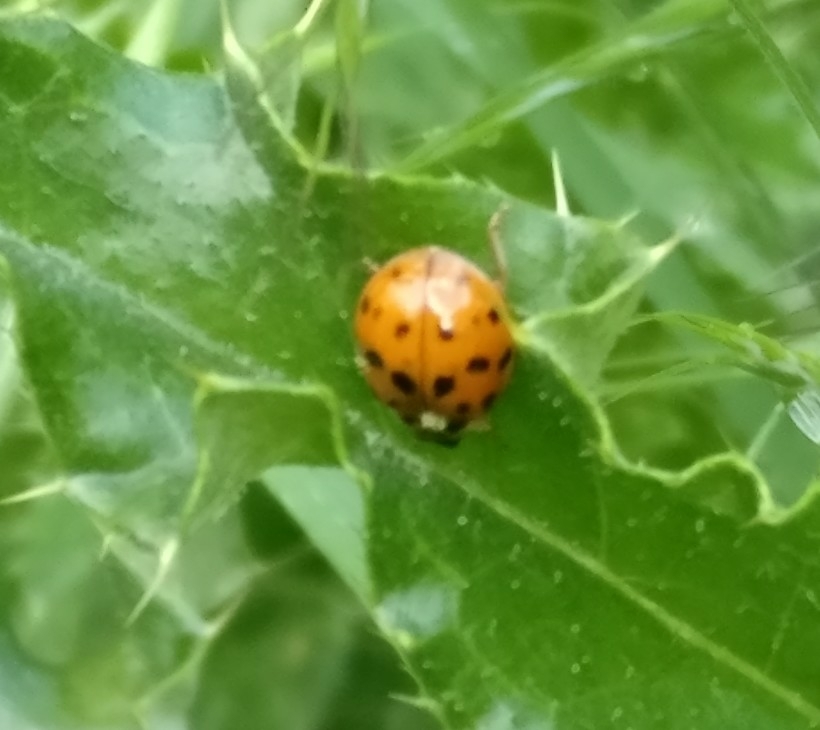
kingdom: Animalia
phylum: Arthropoda
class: Insecta
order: Coleoptera
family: Coccinellidae
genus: Harmonia
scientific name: Harmonia axyridis
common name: Harlequin ladybird
